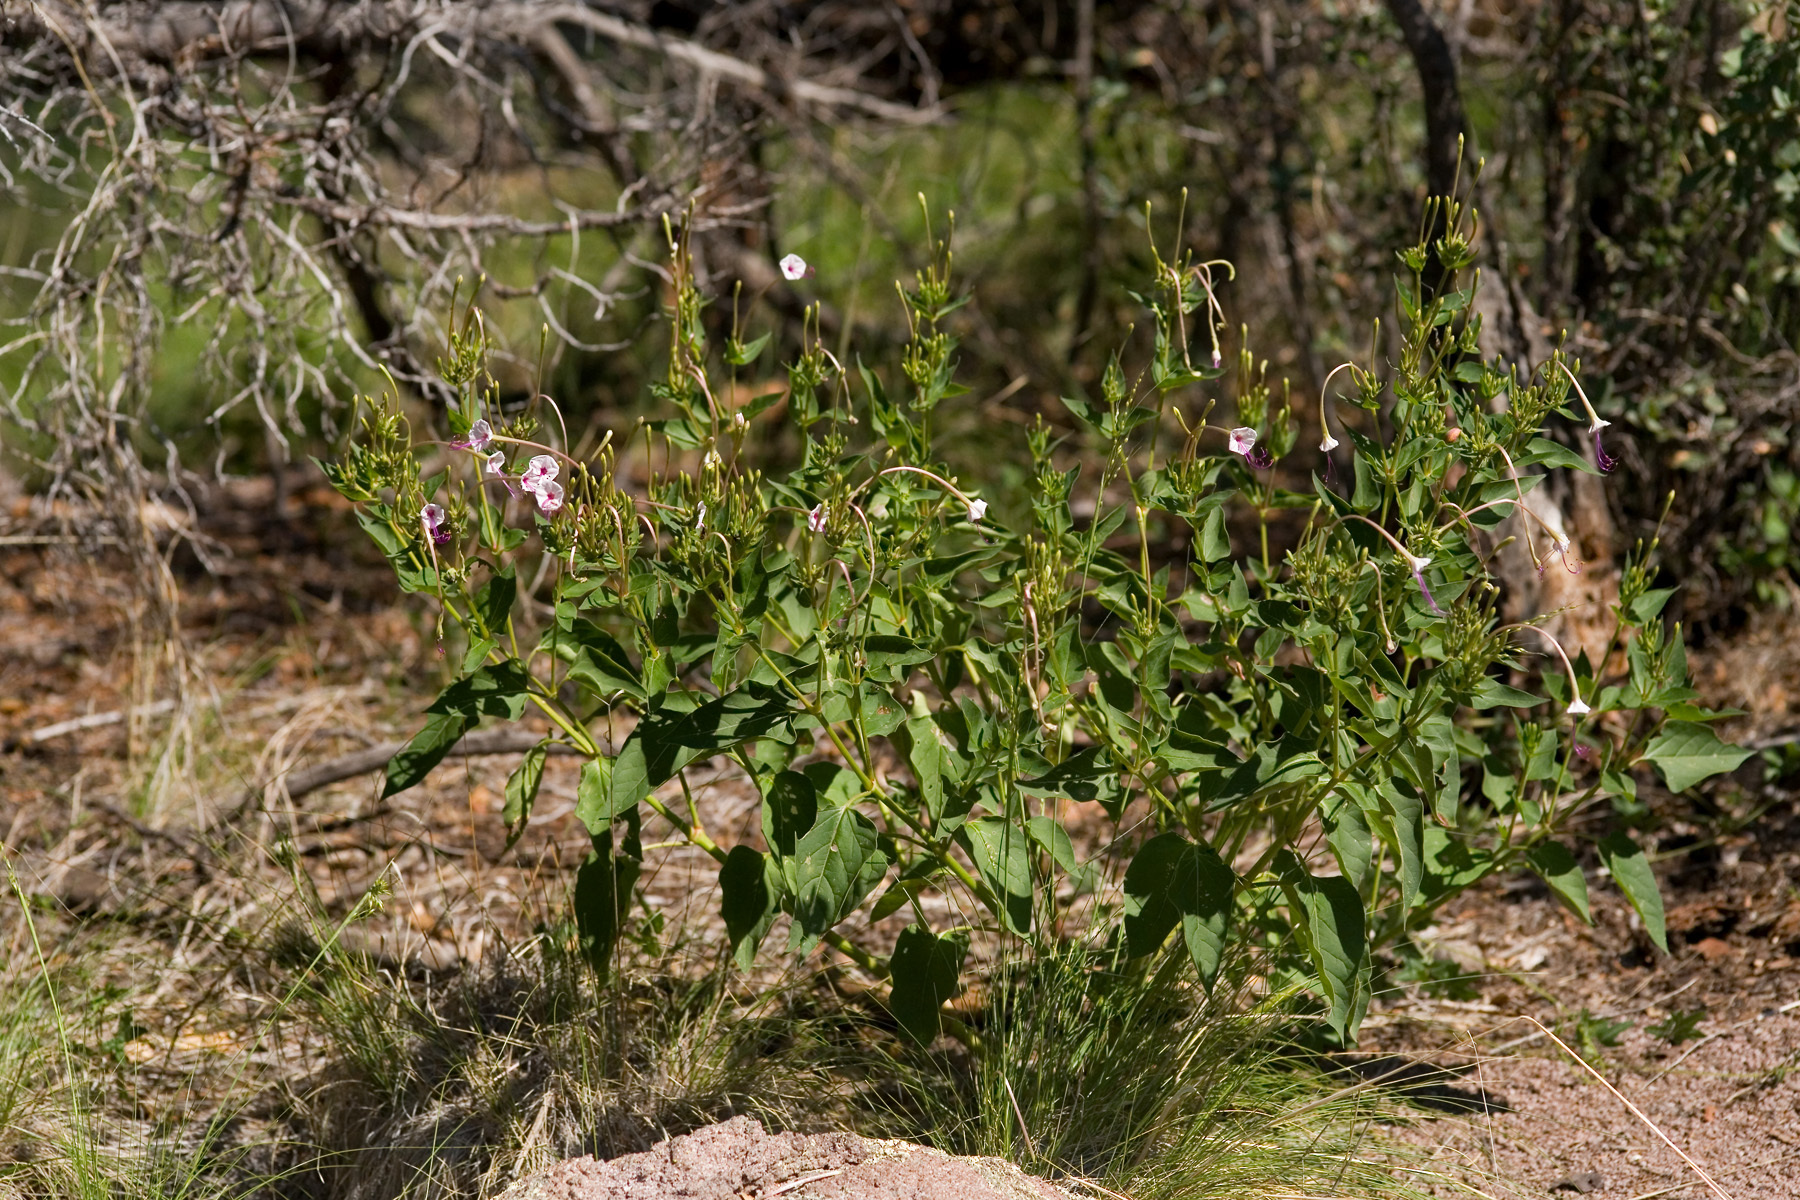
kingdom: Plantae
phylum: Tracheophyta
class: Magnoliopsida
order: Caryophyllales
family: Nyctaginaceae
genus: Mirabilis
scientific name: Mirabilis longiflora
